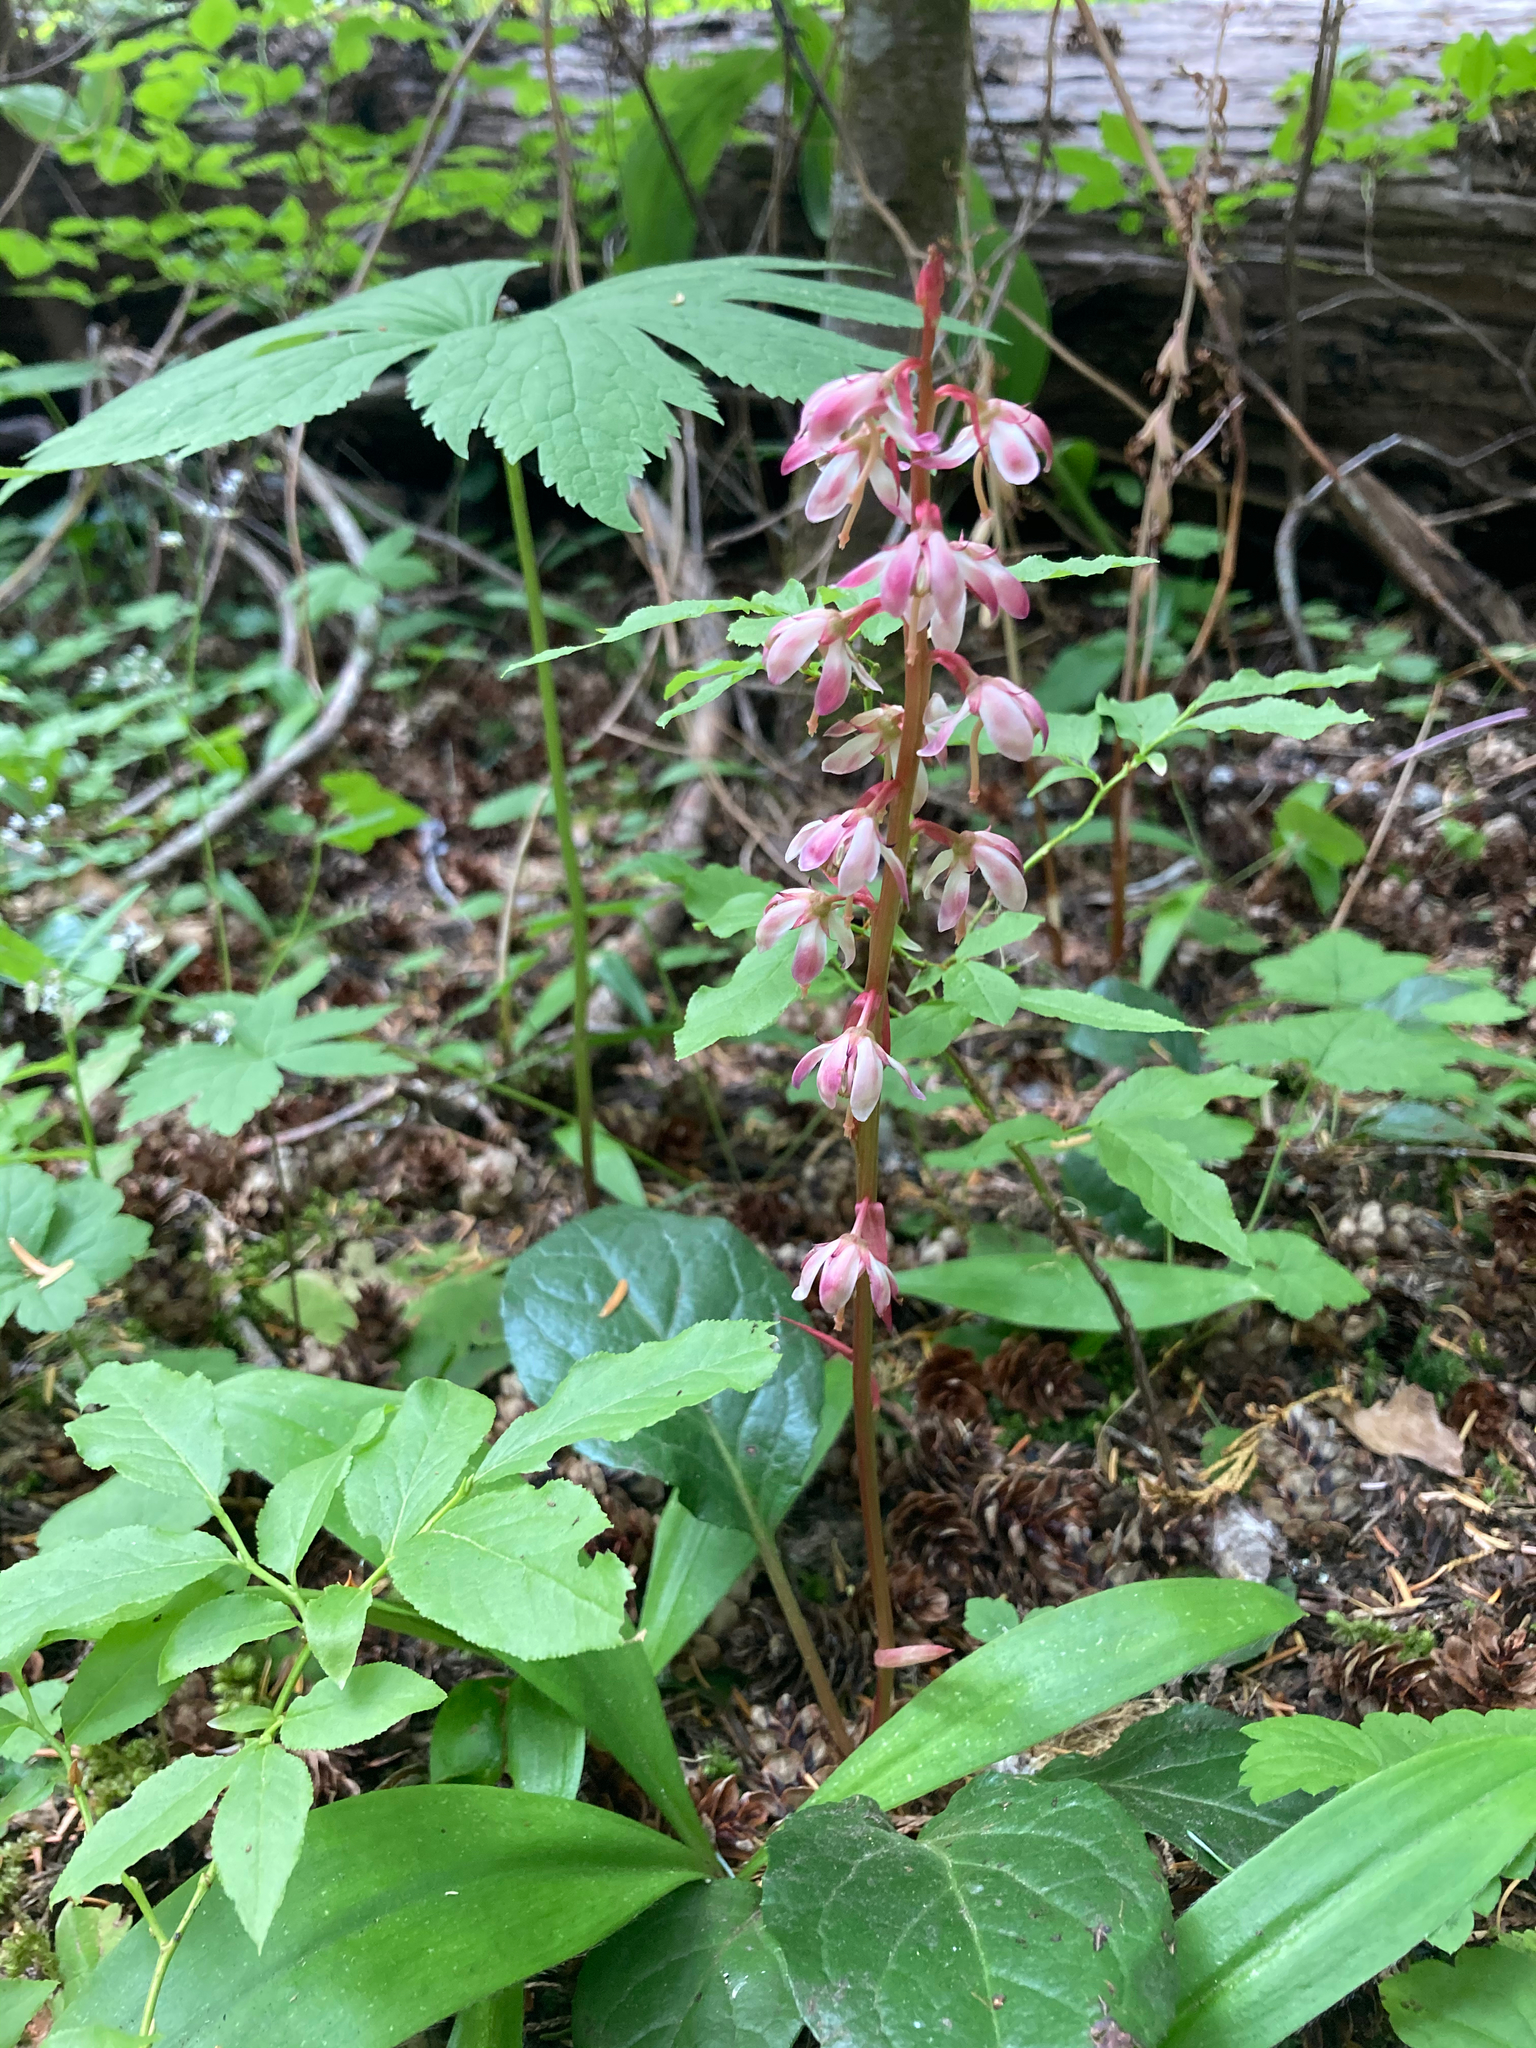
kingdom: Plantae
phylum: Tracheophyta
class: Magnoliopsida
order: Ericales
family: Ericaceae
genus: Pyrola
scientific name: Pyrola asarifolia
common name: Bog wintergreen
